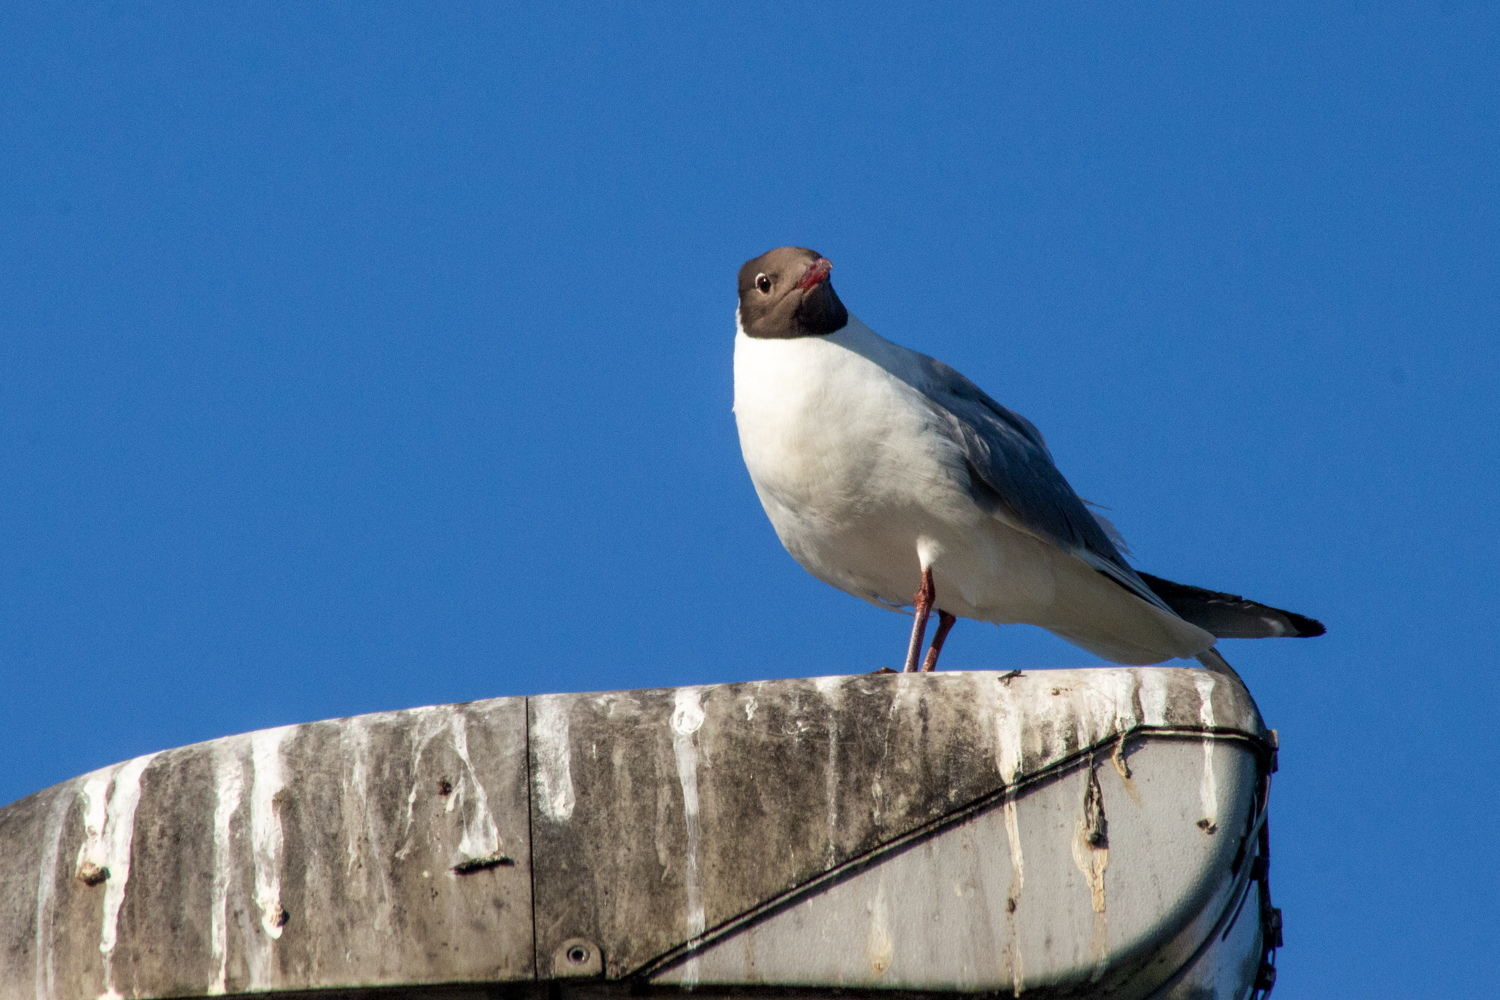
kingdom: Animalia
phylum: Chordata
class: Aves
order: Charadriiformes
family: Laridae
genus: Chroicocephalus
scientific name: Chroicocephalus ridibundus
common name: Black-headed gull
